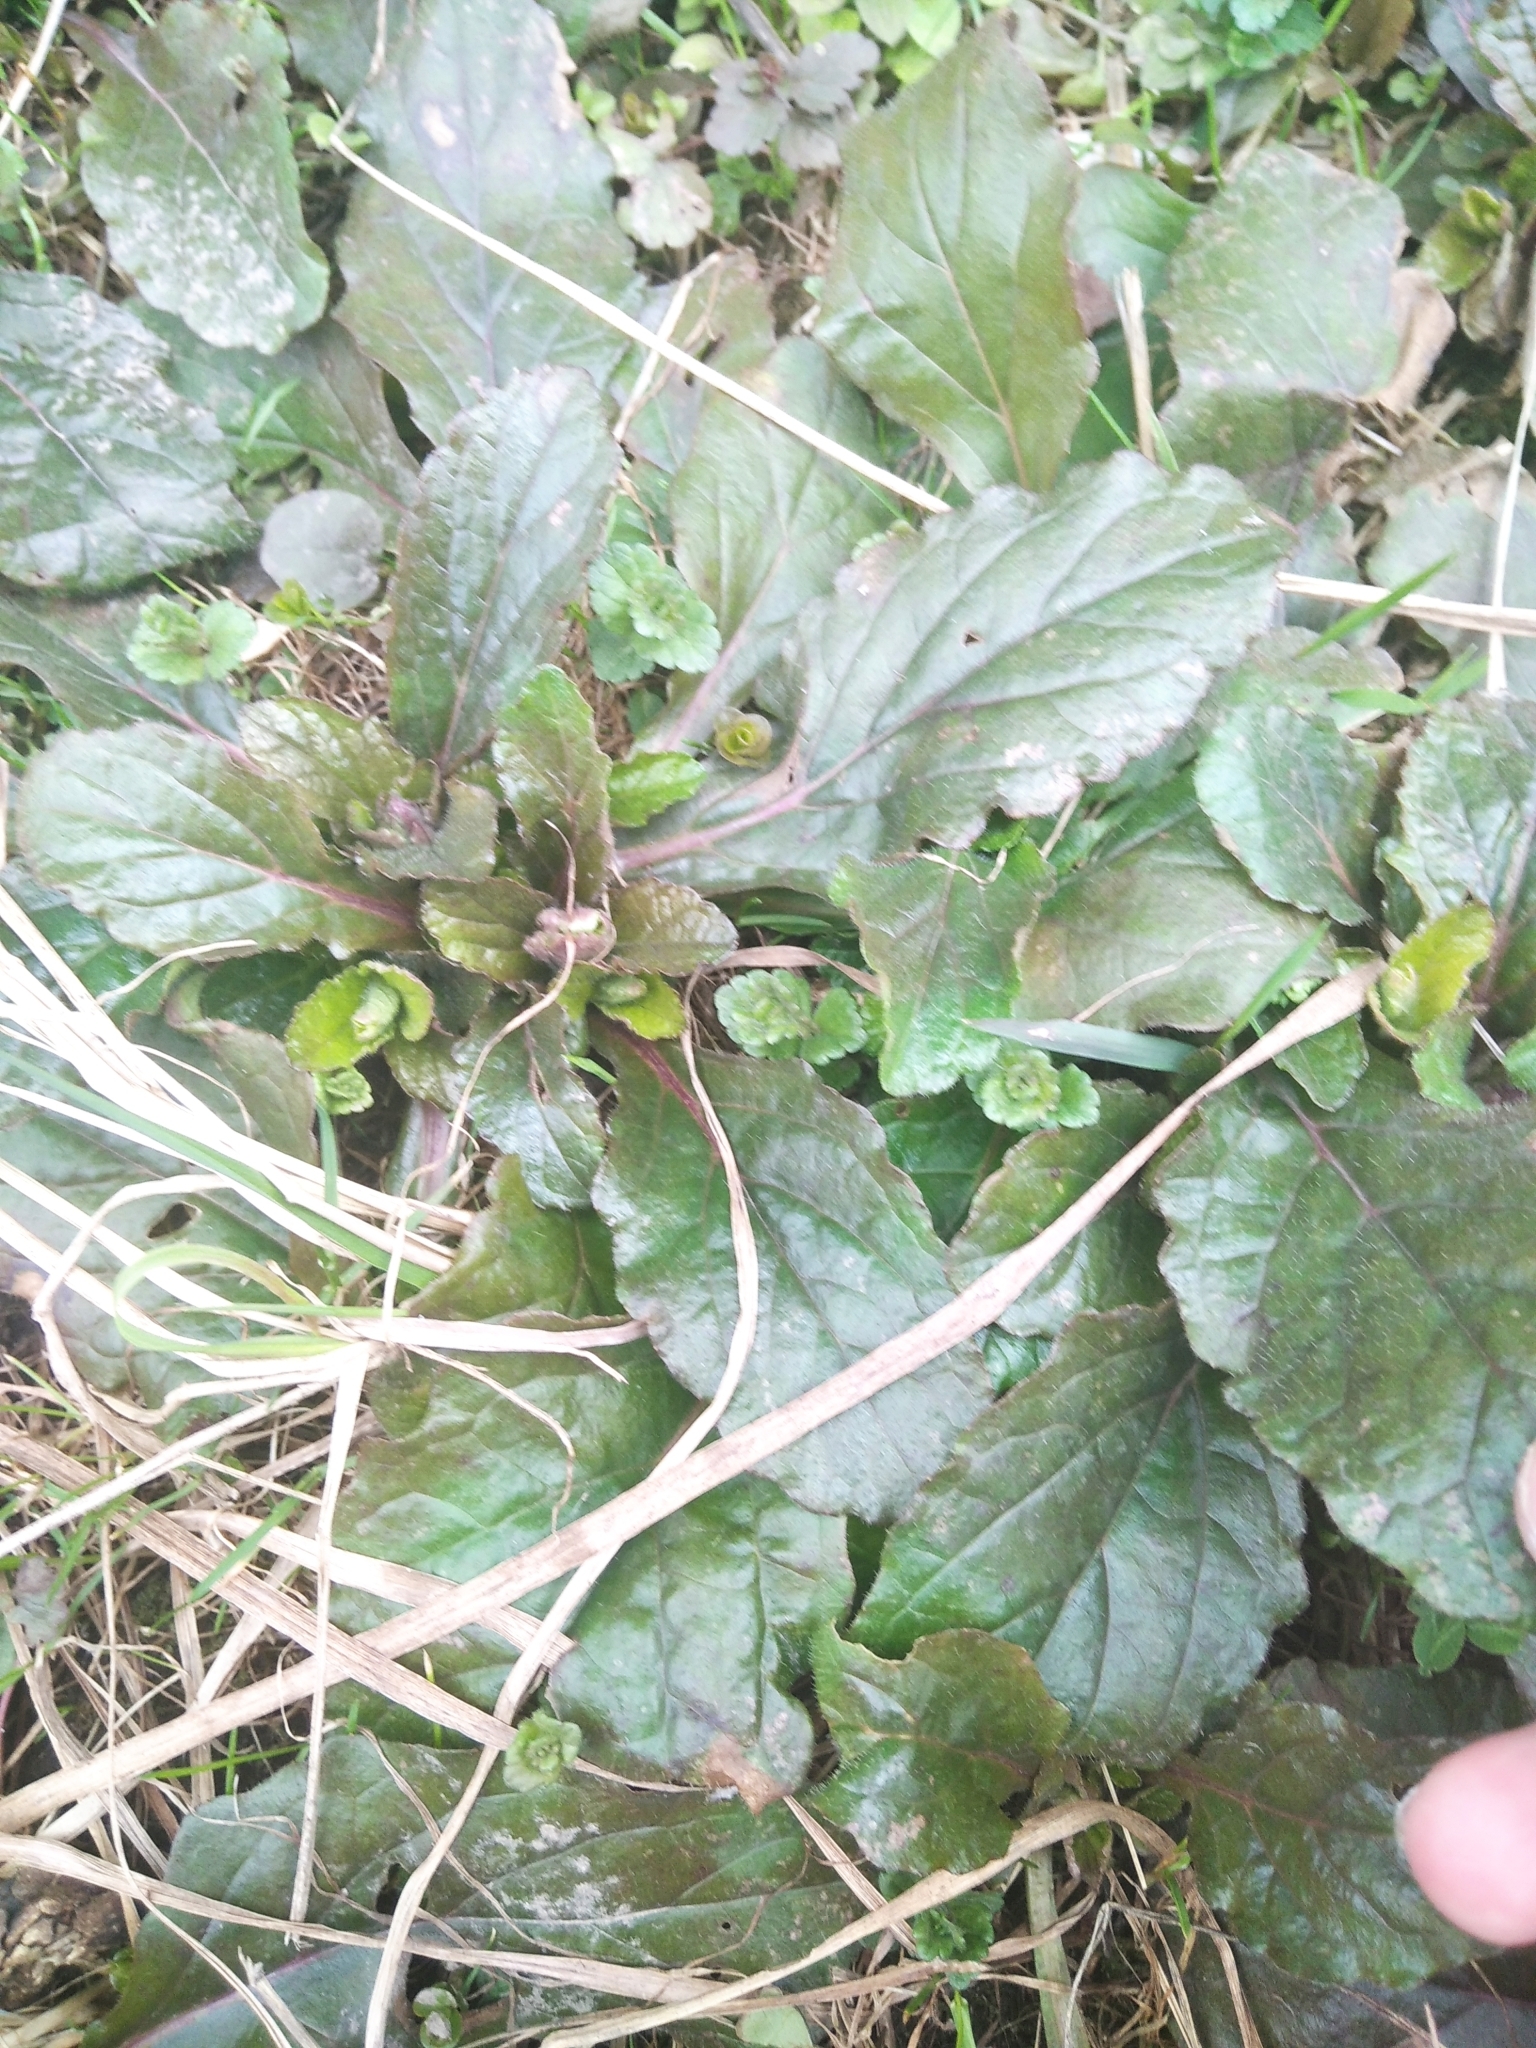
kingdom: Plantae
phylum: Tracheophyta
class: Magnoliopsida
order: Lamiales
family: Lamiaceae
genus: Ajuga
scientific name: Ajuga reptans
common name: Bugle
